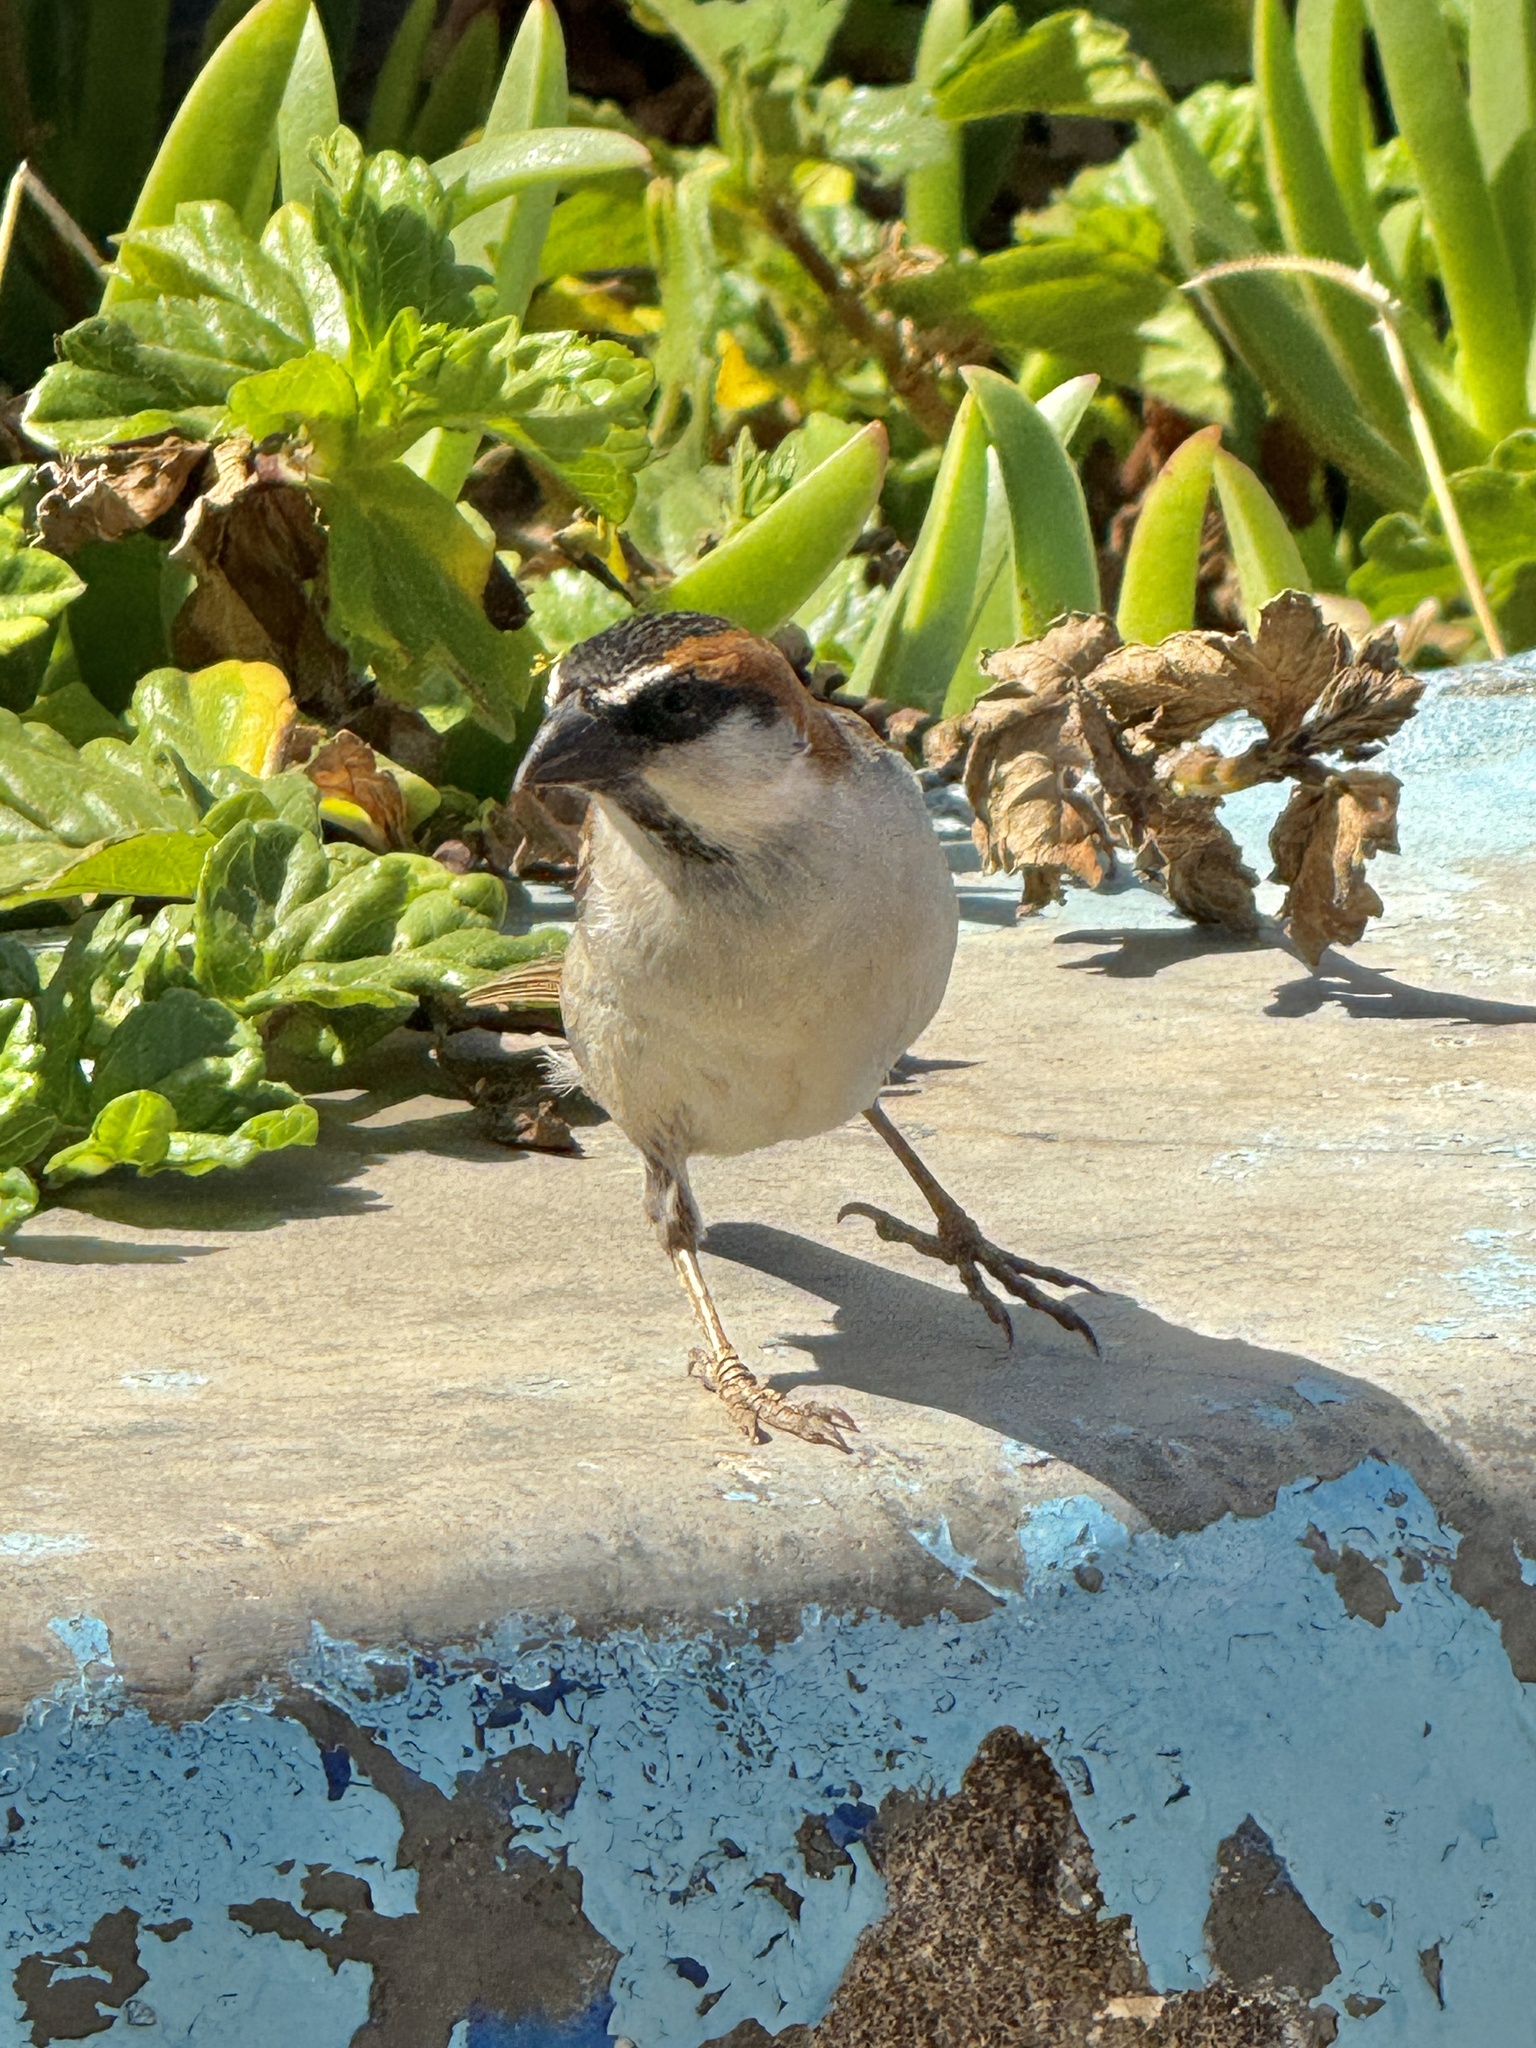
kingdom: Animalia
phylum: Chordata
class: Aves
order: Passeriformes
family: Passeridae
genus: Passer
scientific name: Passer iagoensis
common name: Iago sparrow
